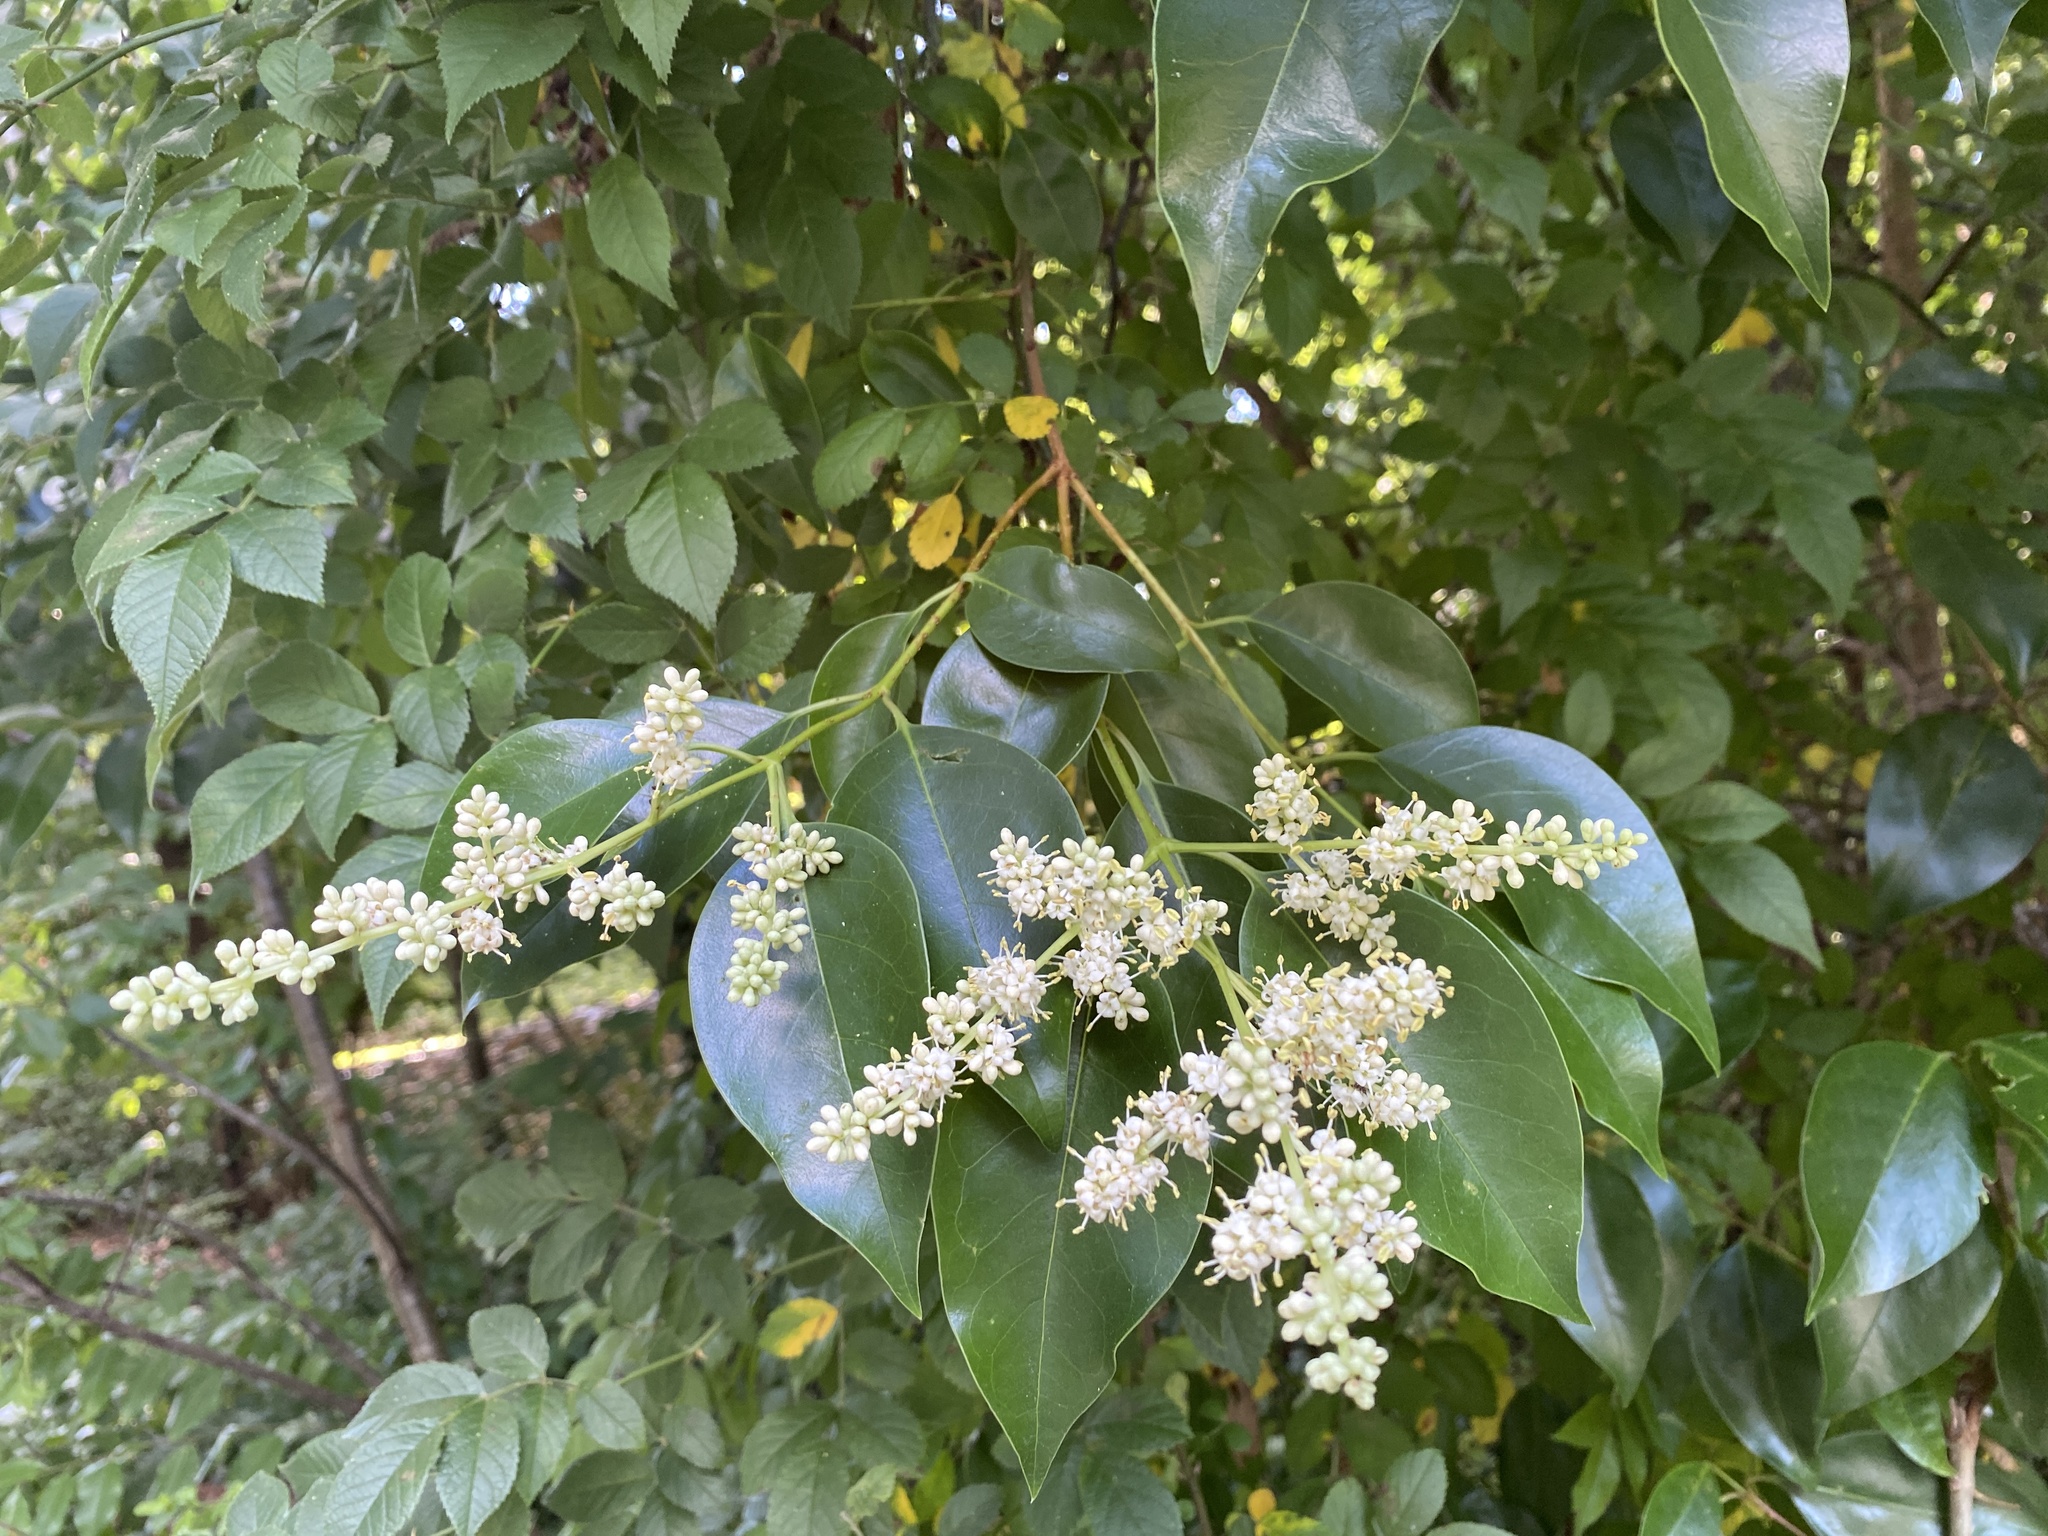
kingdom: Plantae
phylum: Tracheophyta
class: Magnoliopsida
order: Lamiales
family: Oleaceae
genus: Ligustrum
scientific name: Ligustrum lucidum
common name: Glossy privet
